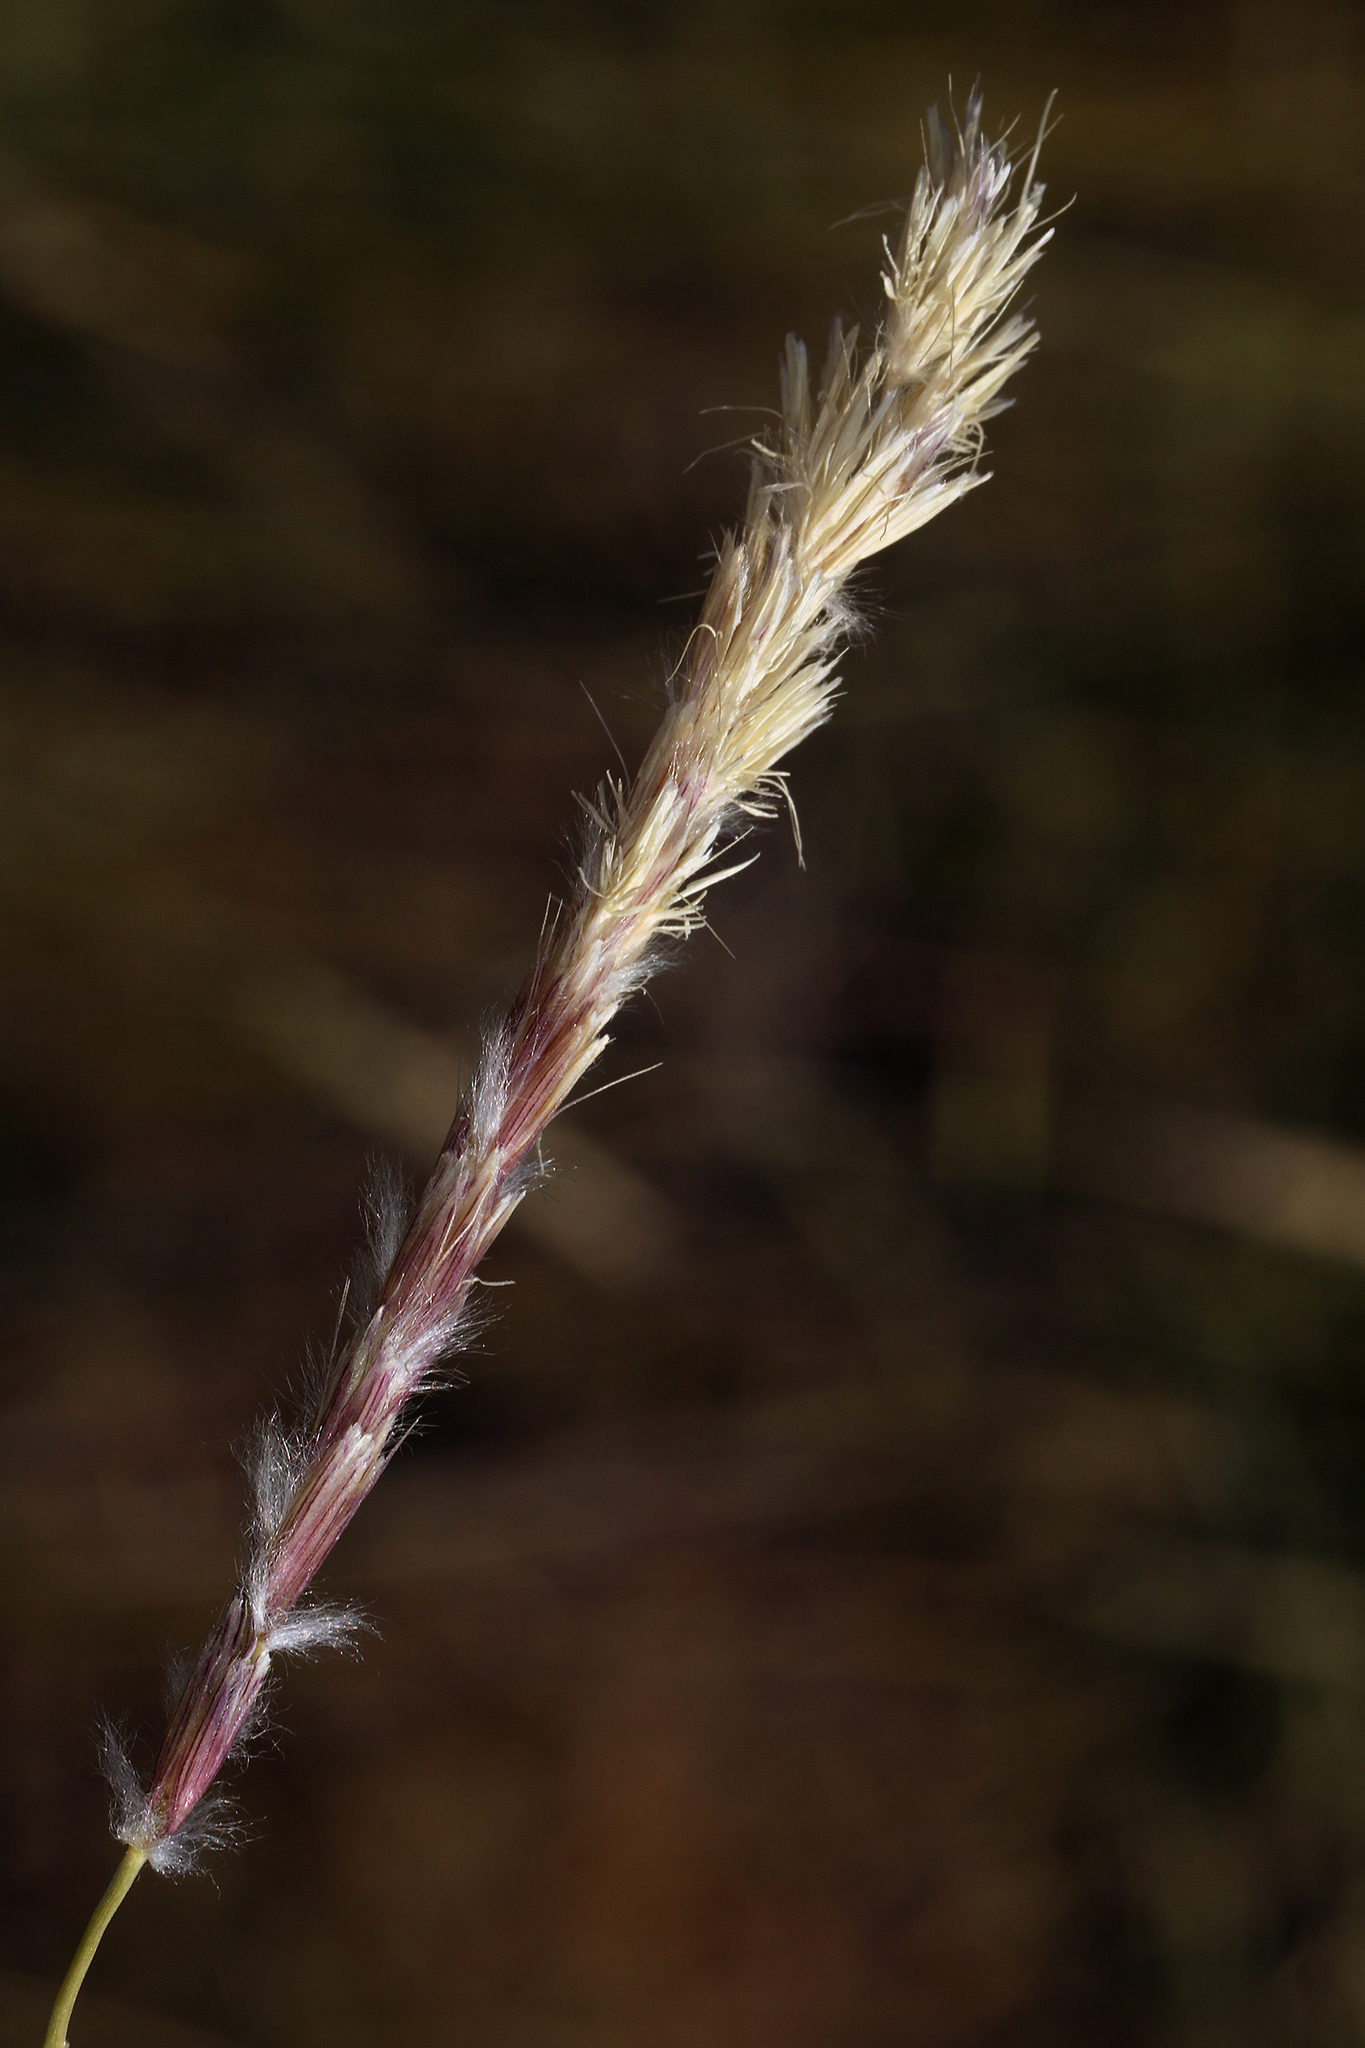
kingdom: Plantae
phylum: Tracheophyta
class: Liliopsida
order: Poales
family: Poaceae
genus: Hilaria
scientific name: Hilaria jamesii
